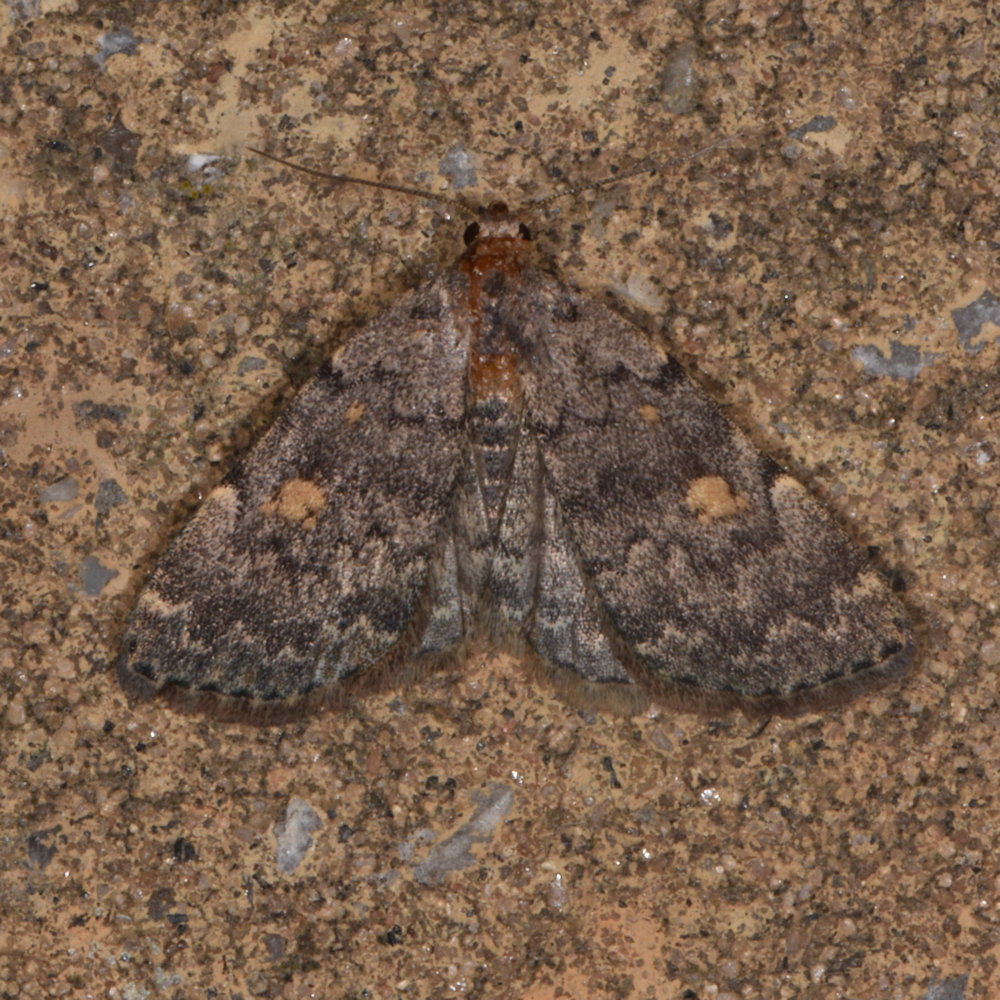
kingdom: Animalia
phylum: Arthropoda
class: Insecta
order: Lepidoptera
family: Erebidae
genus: Idia
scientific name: Idia aemula
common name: Common idia moth
